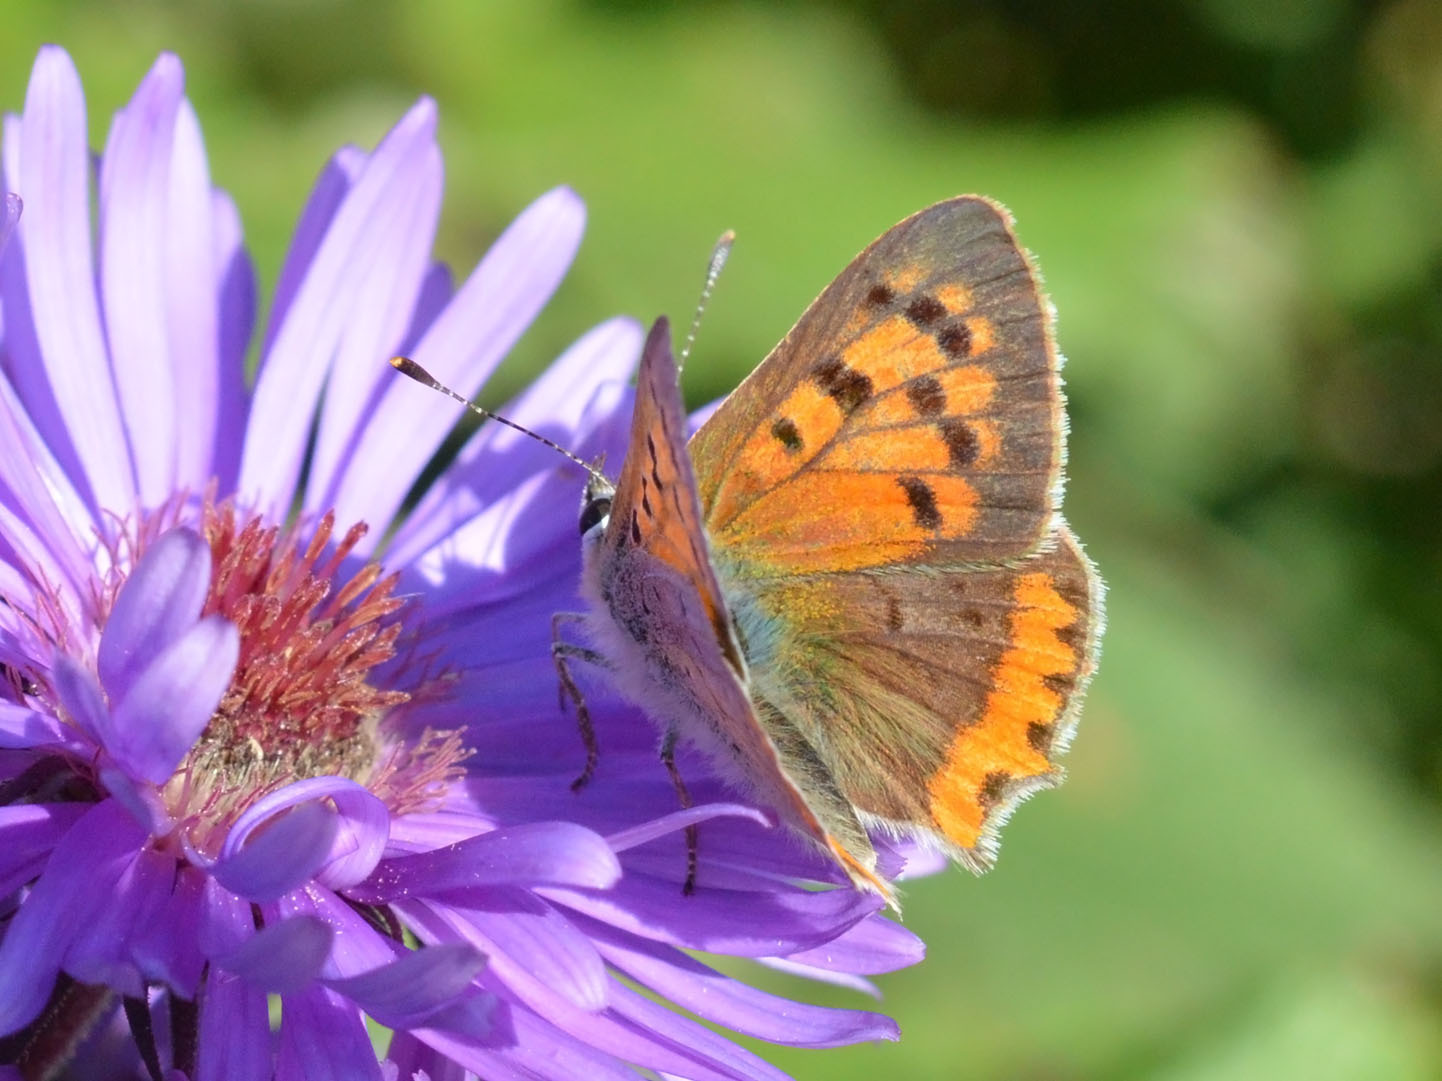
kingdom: Animalia
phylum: Arthropoda
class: Insecta
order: Lepidoptera
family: Lycaenidae
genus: Lycaena
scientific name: Lycaena phlaeas
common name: Small copper
